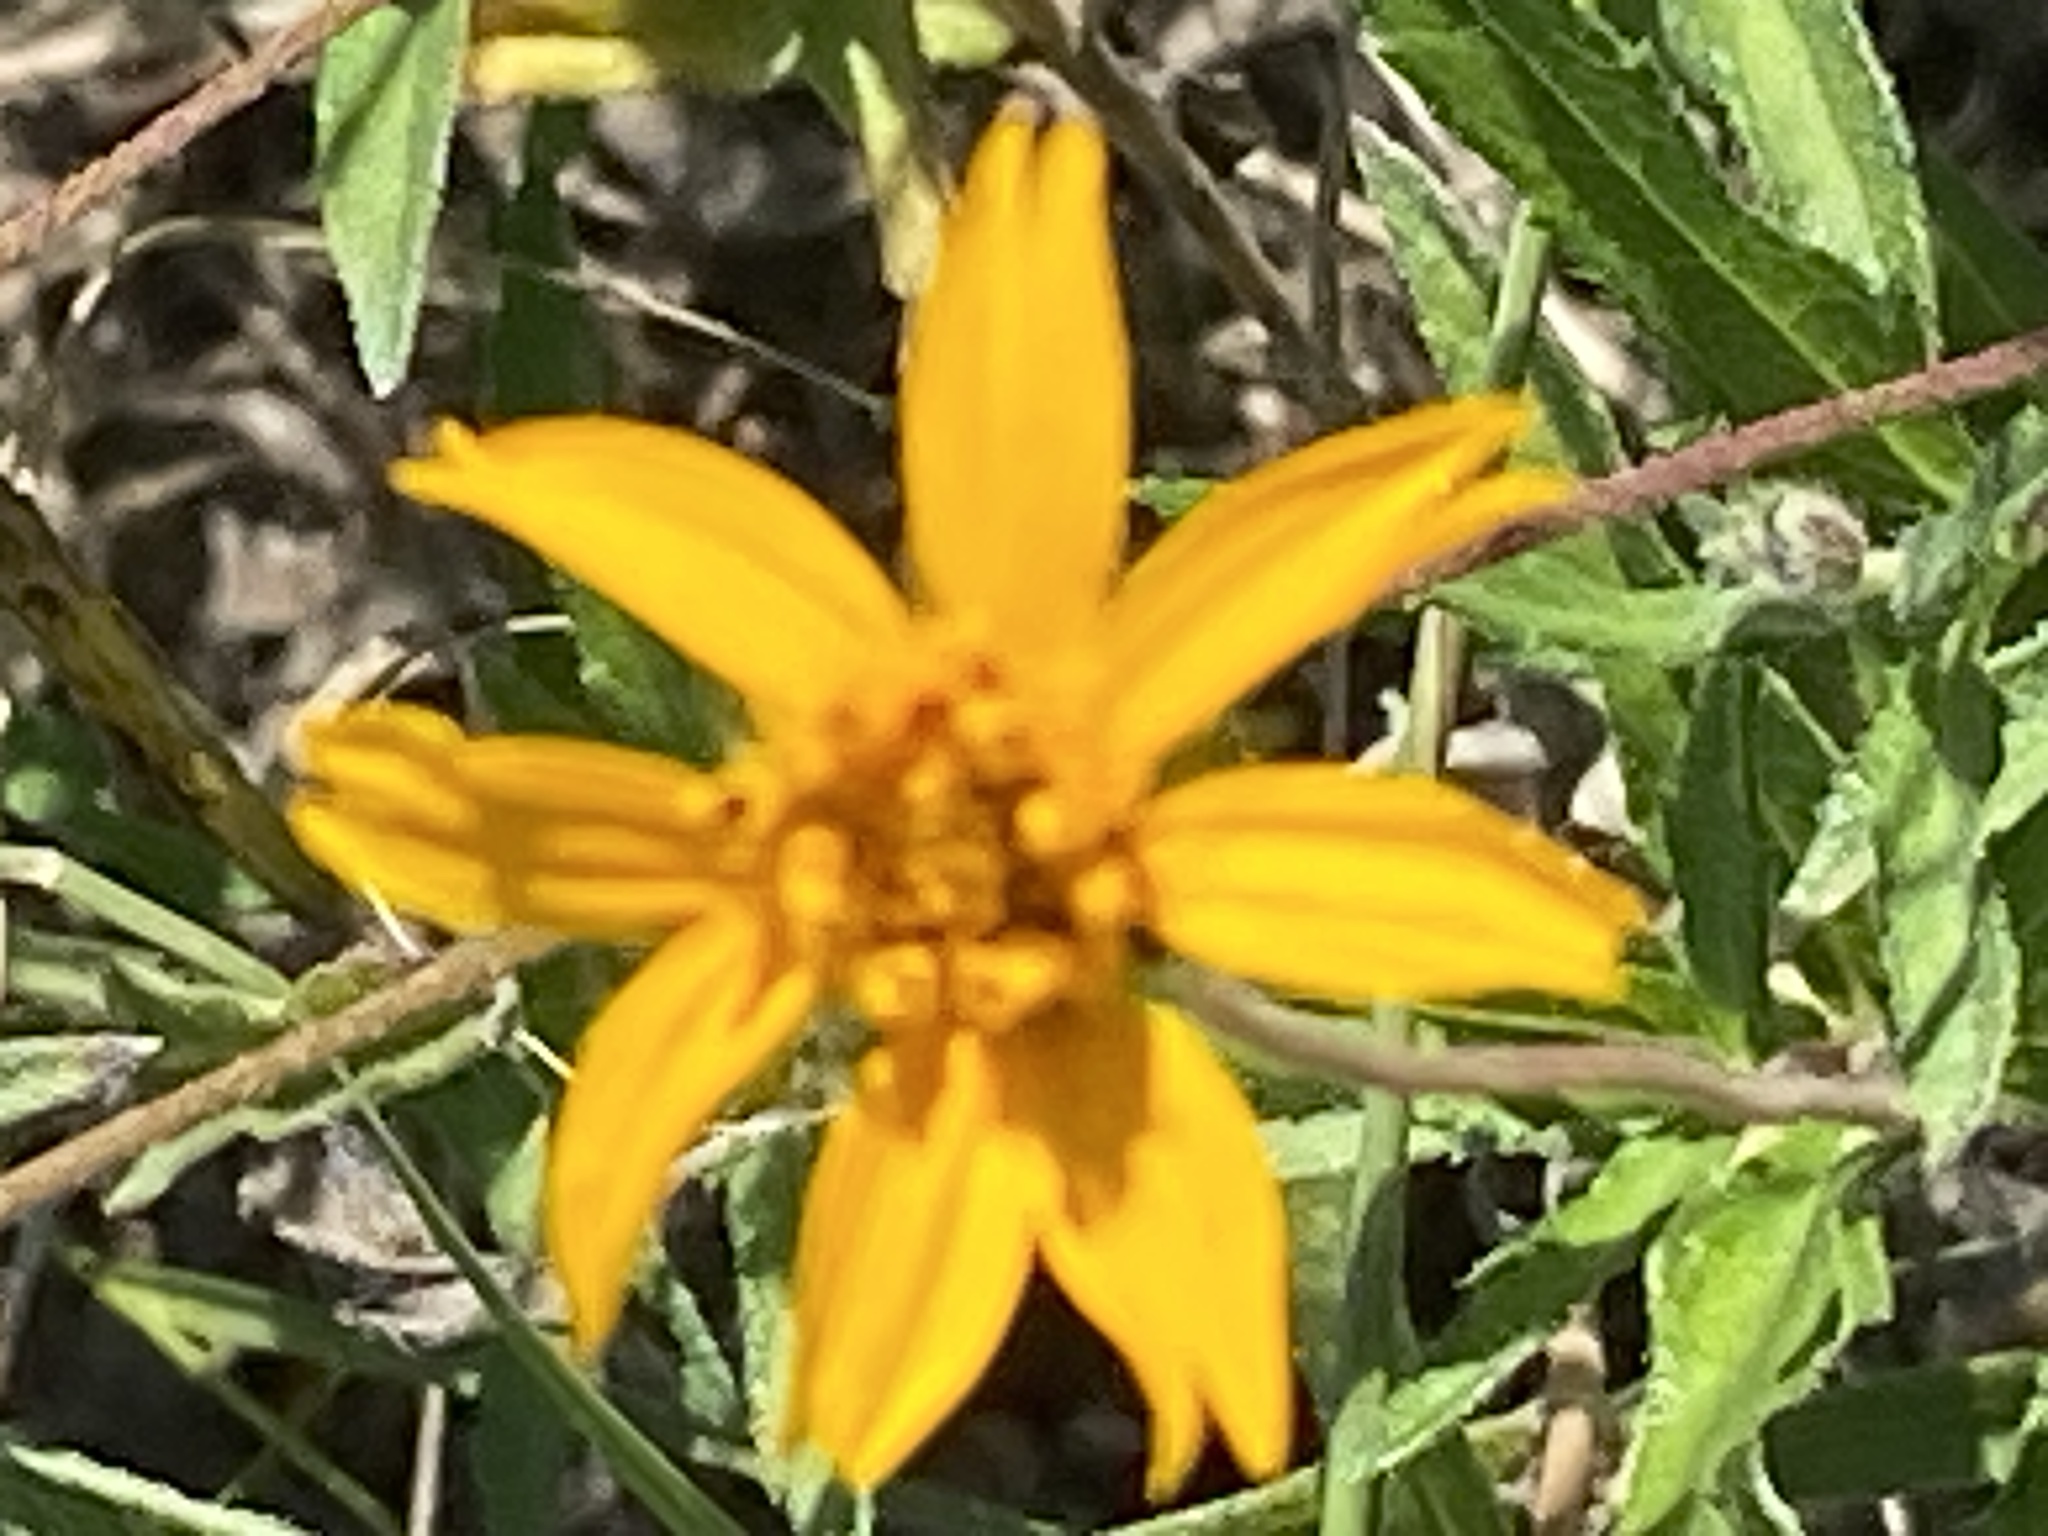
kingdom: Plantae
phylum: Tracheophyta
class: Magnoliopsida
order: Asterales
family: Asteraceae
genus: Wedelia
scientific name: Wedelia acapulcensis
